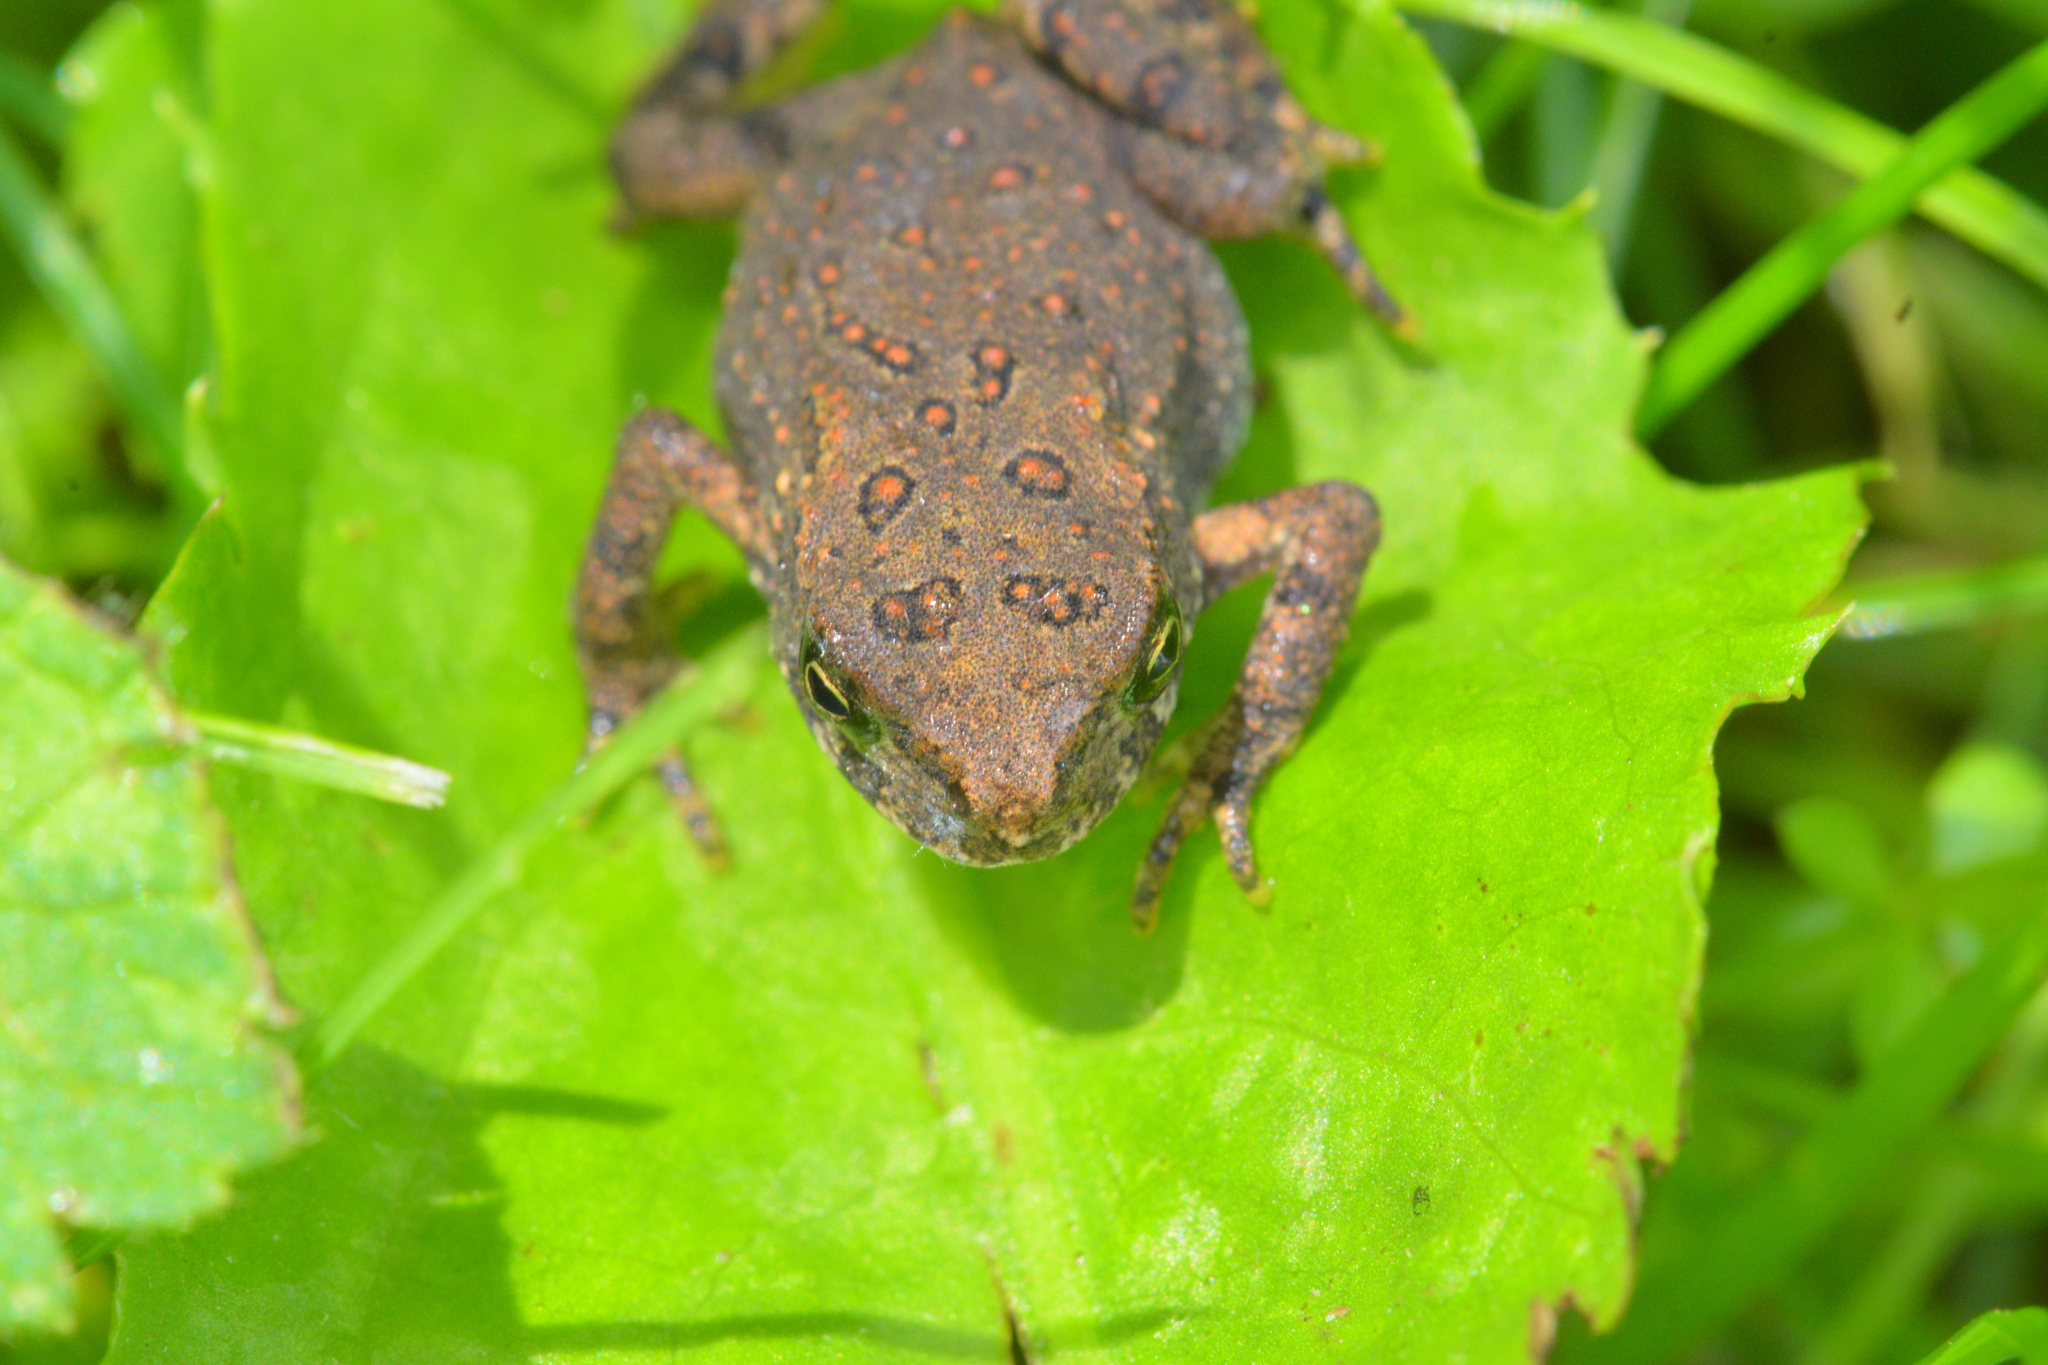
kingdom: Animalia
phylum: Chordata
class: Amphibia
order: Anura
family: Bufonidae
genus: Anaxyrus
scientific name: Anaxyrus americanus
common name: American toad
